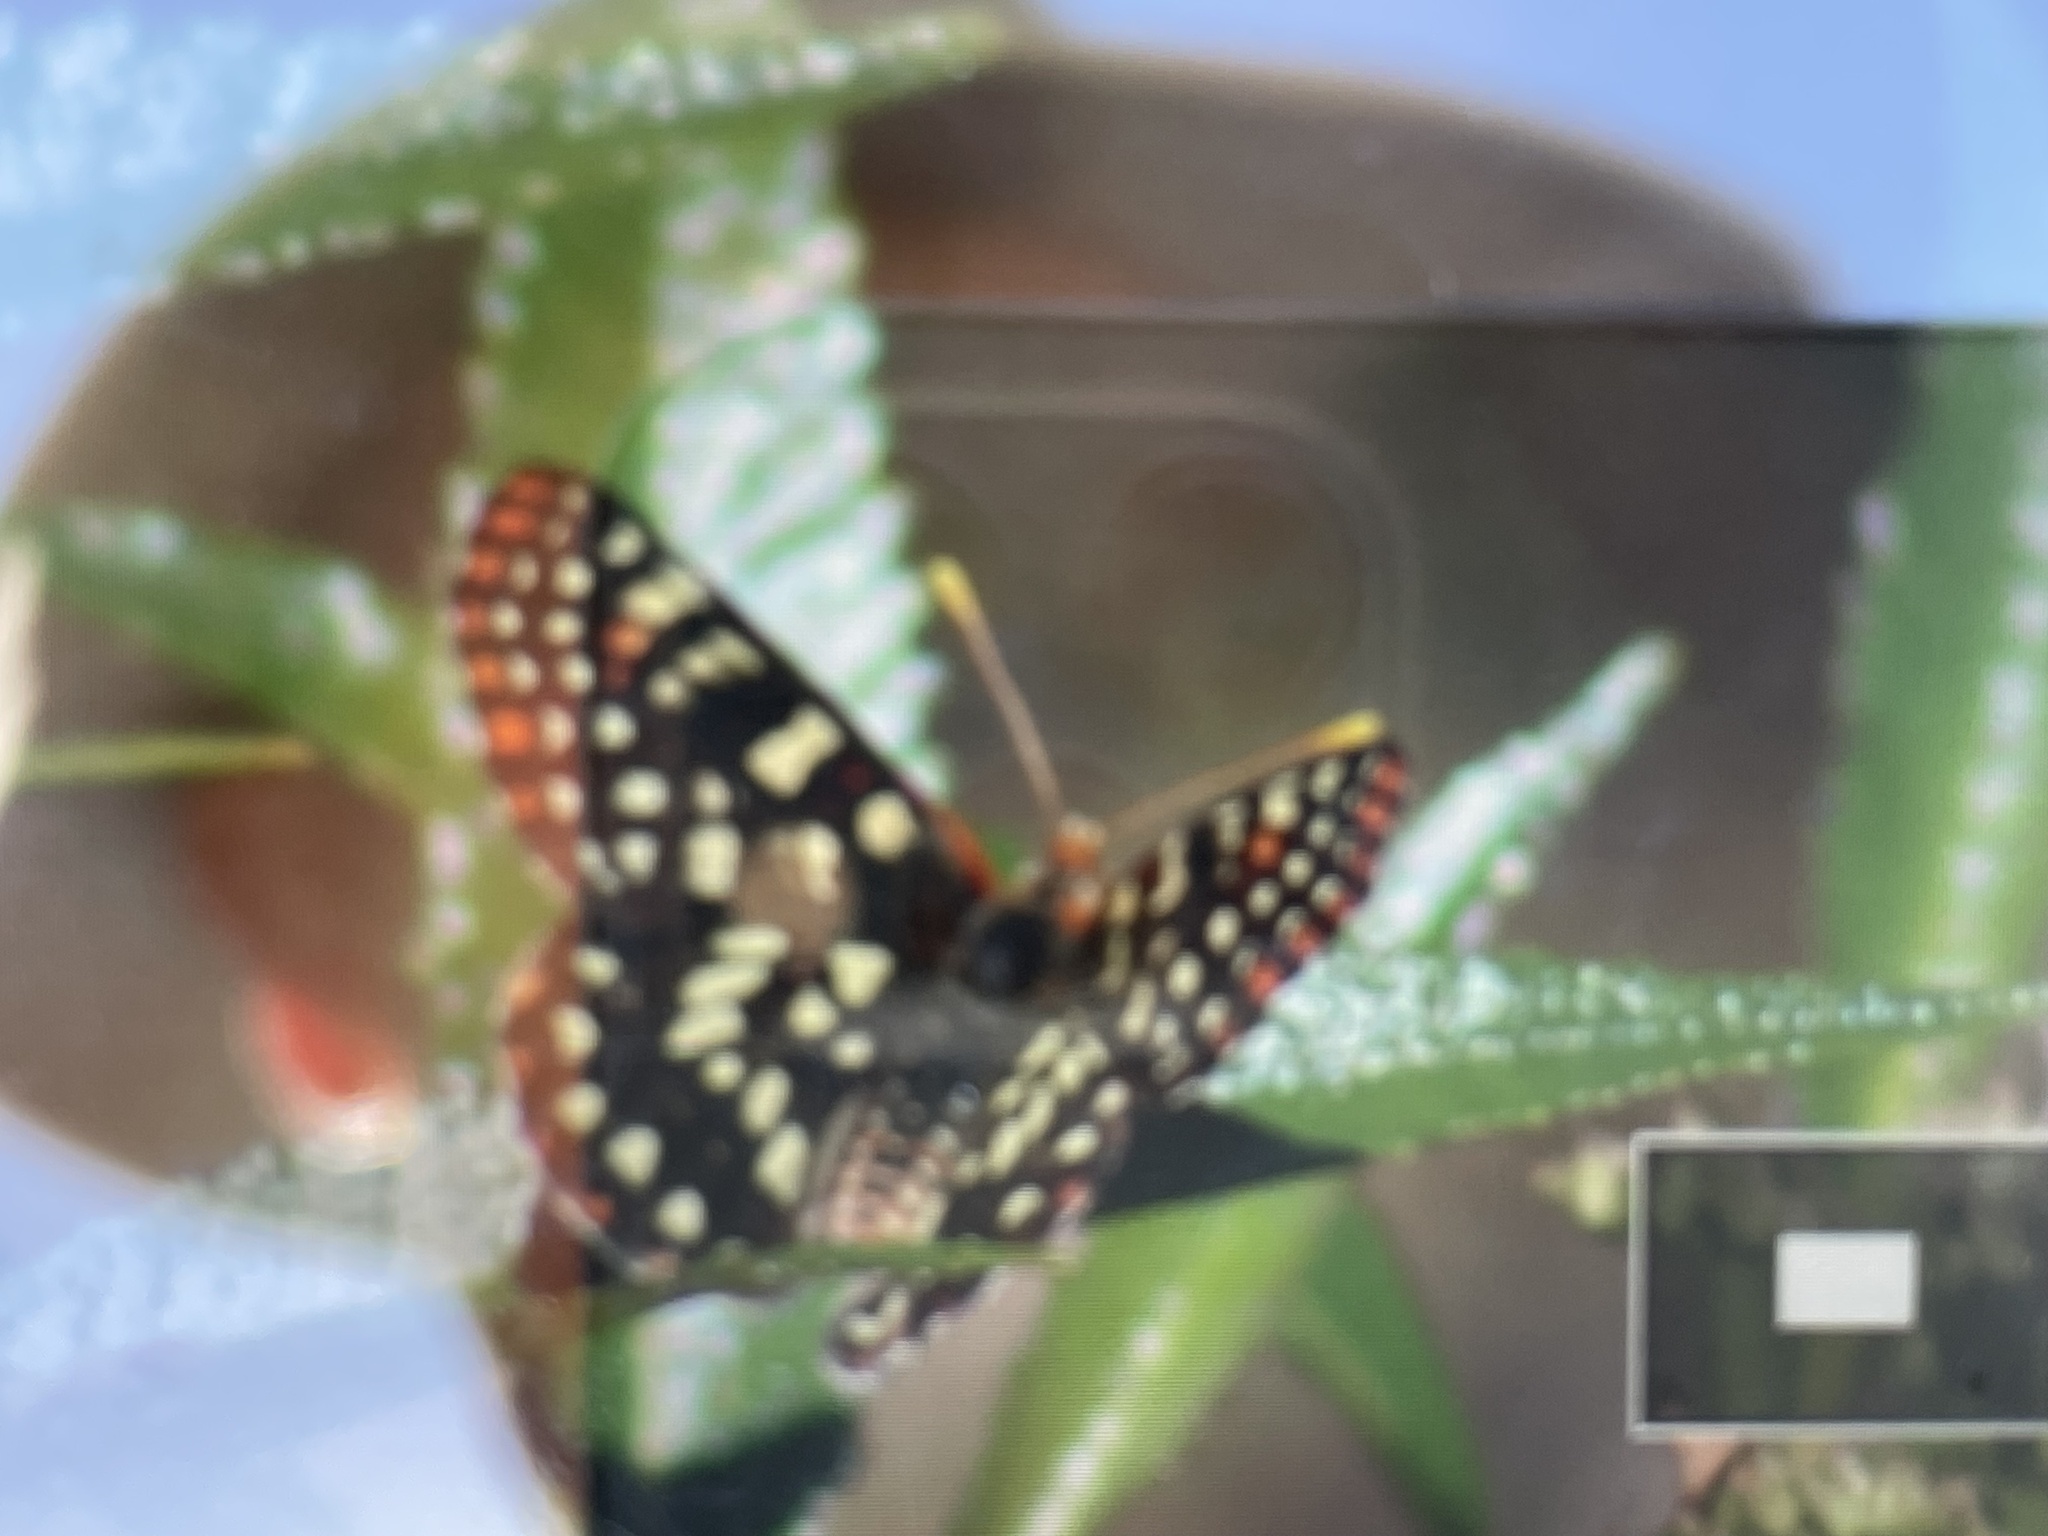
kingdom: Animalia
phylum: Arthropoda
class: Insecta
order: Lepidoptera
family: Nymphalidae
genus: Occidryas
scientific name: Occidryas chalcedona
